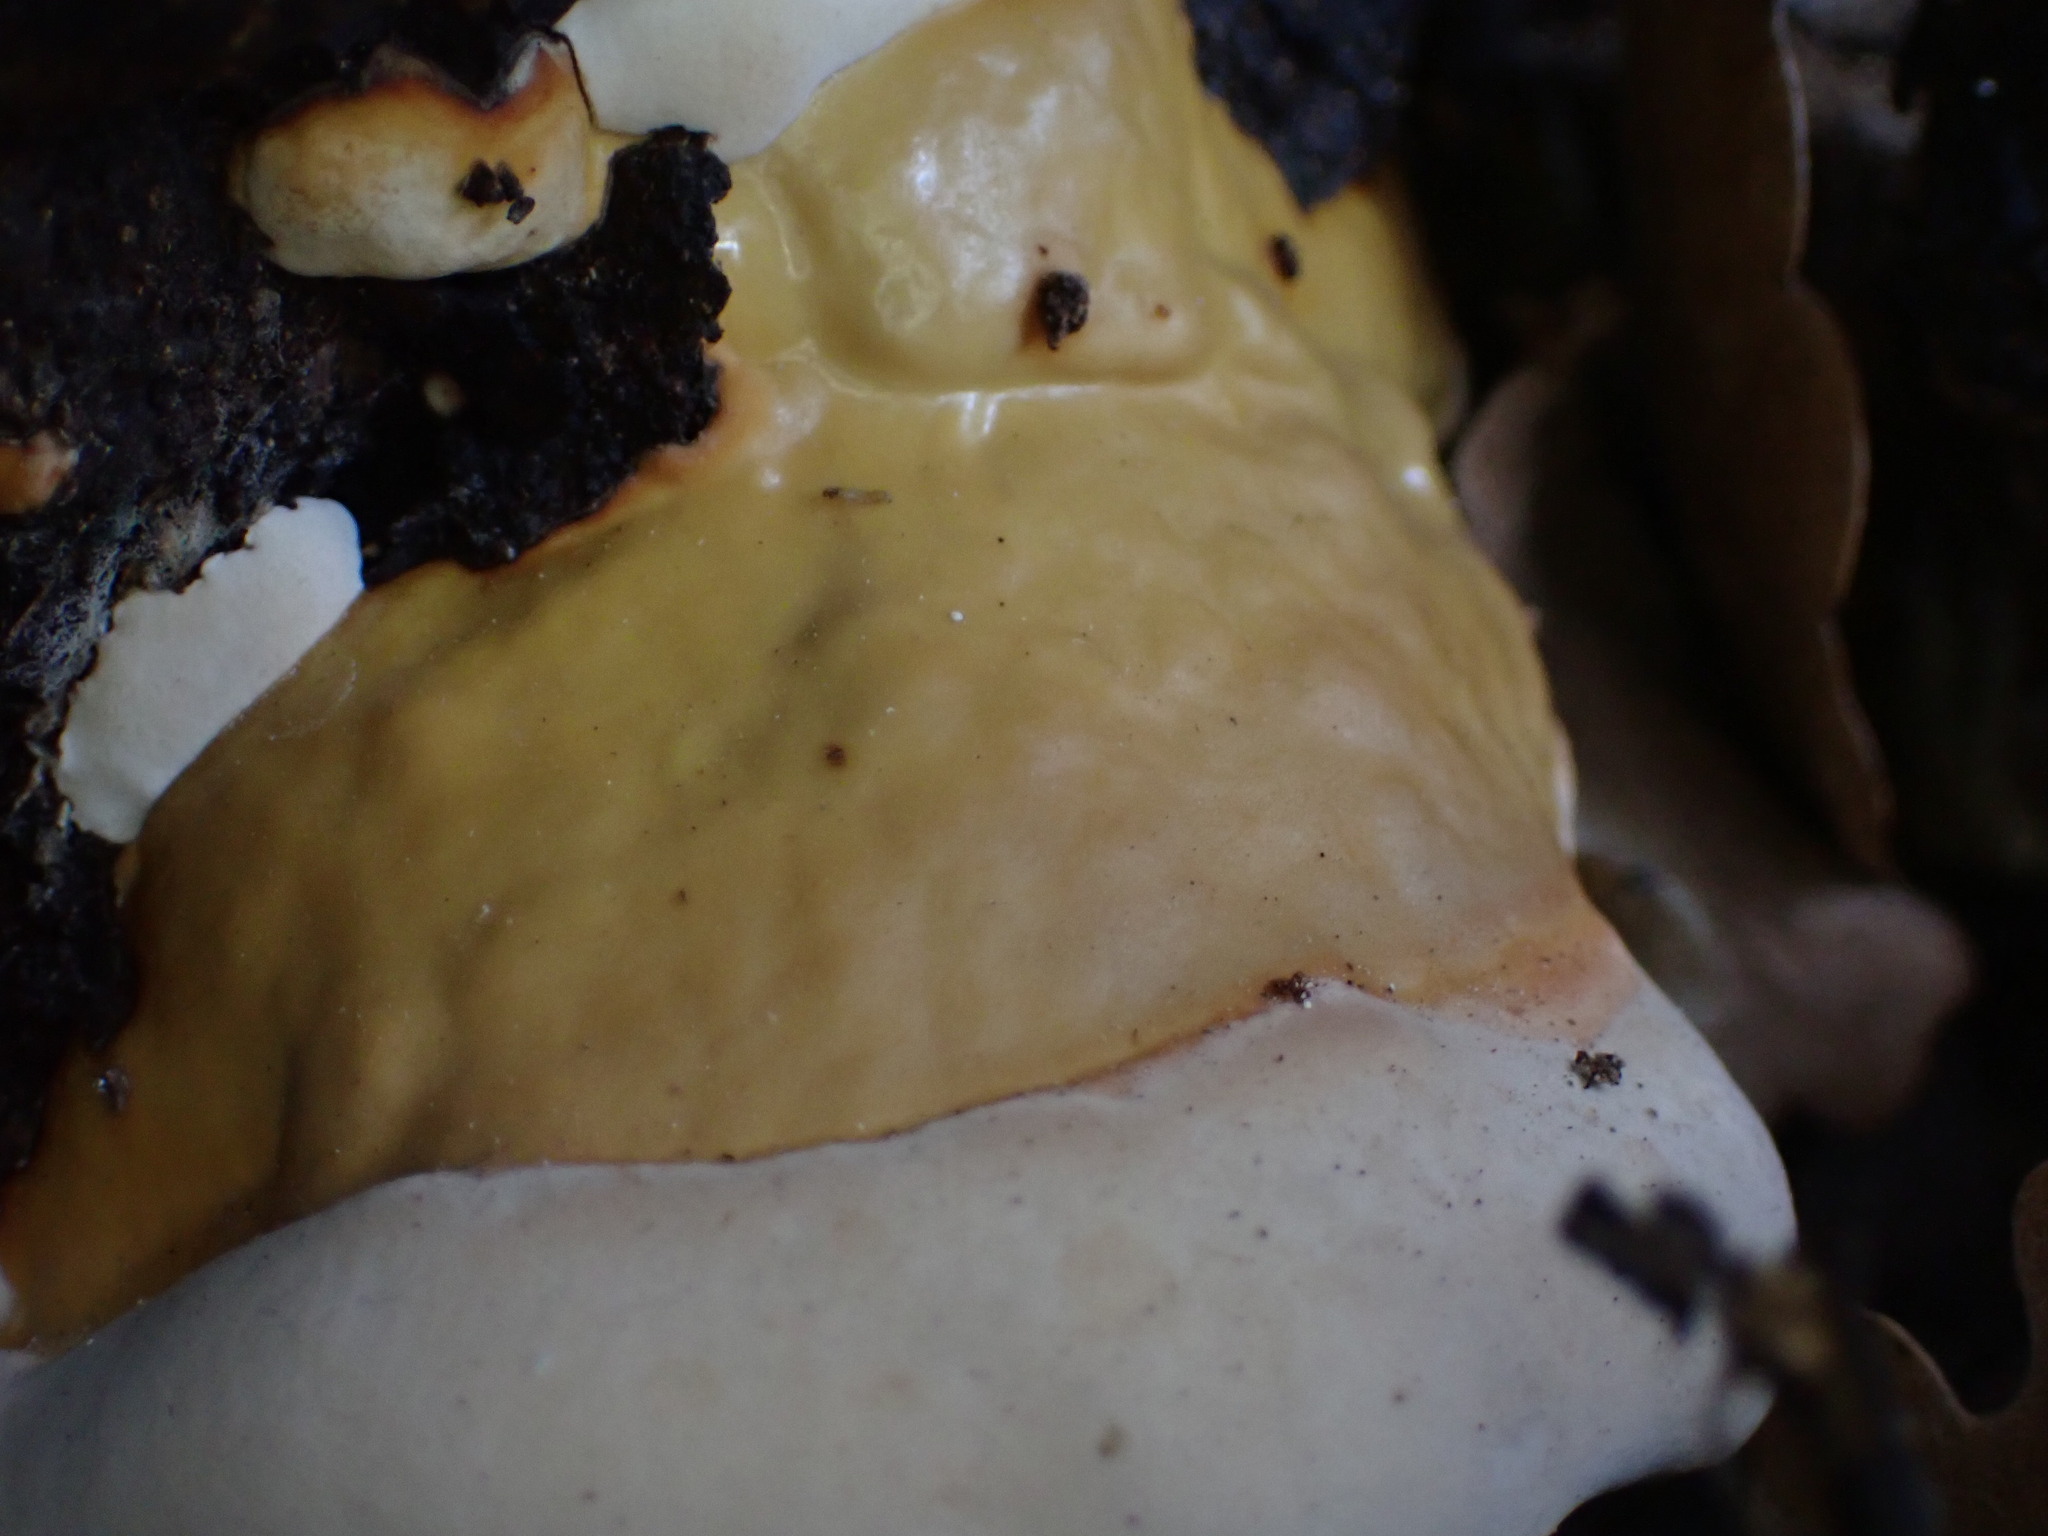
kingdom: Fungi
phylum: Basidiomycota
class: Agaricomycetes
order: Polyporales
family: Fomitopsidaceae
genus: Fomitopsis
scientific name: Fomitopsis pinicola
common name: Red-belted bracket
